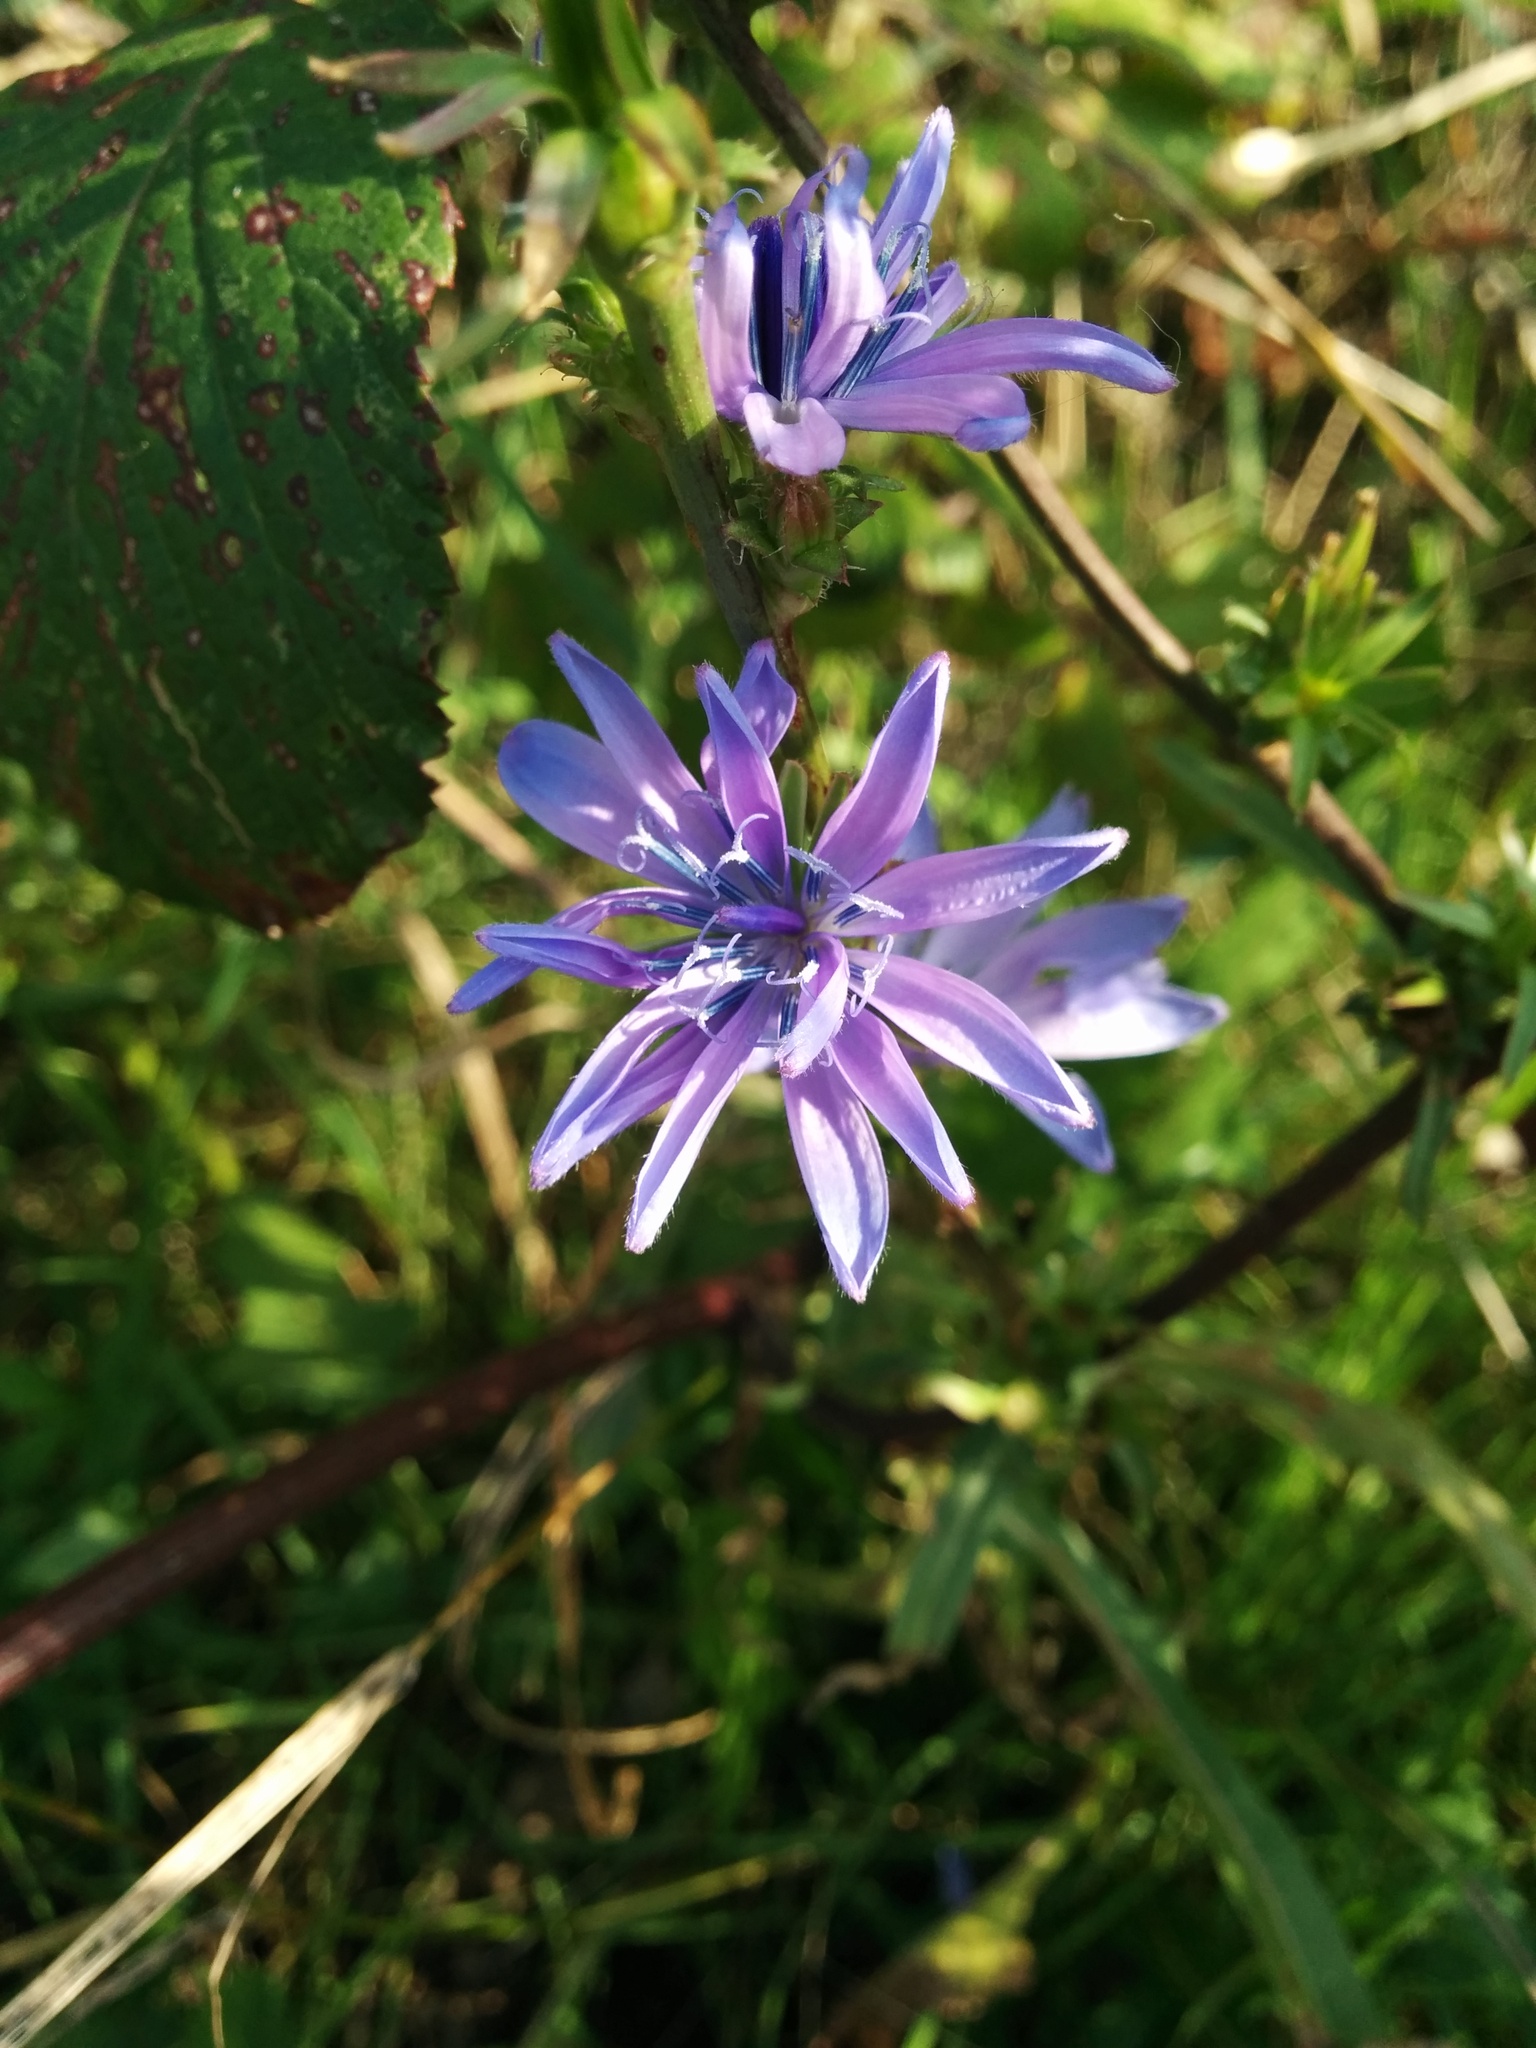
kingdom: Plantae
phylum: Tracheophyta
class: Magnoliopsida
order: Asterales
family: Asteraceae
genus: Cichorium
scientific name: Cichorium intybus
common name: Chicory
